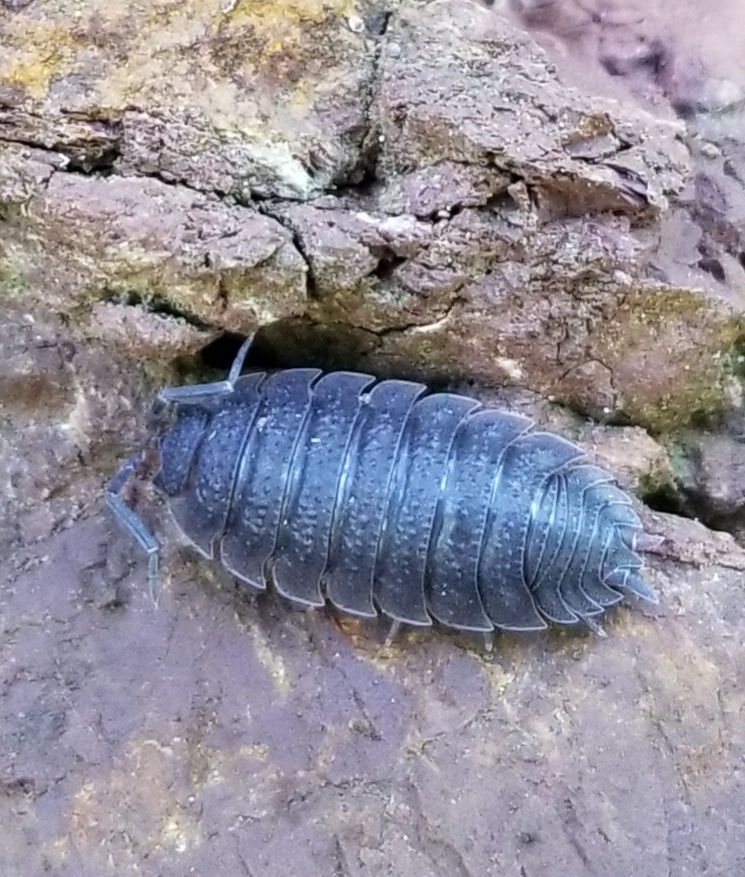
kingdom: Animalia
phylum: Arthropoda
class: Malacostraca
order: Isopoda
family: Porcellionidae
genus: Porcellio
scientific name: Porcellio scaber
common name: Common rough woodlouse
